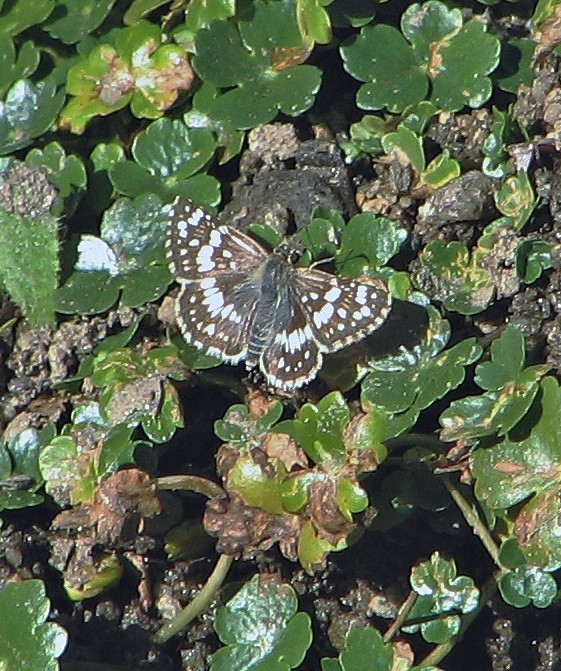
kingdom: Animalia
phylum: Arthropoda
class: Insecta
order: Lepidoptera
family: Hesperiidae
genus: Burnsius
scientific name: Burnsius orcynoides
